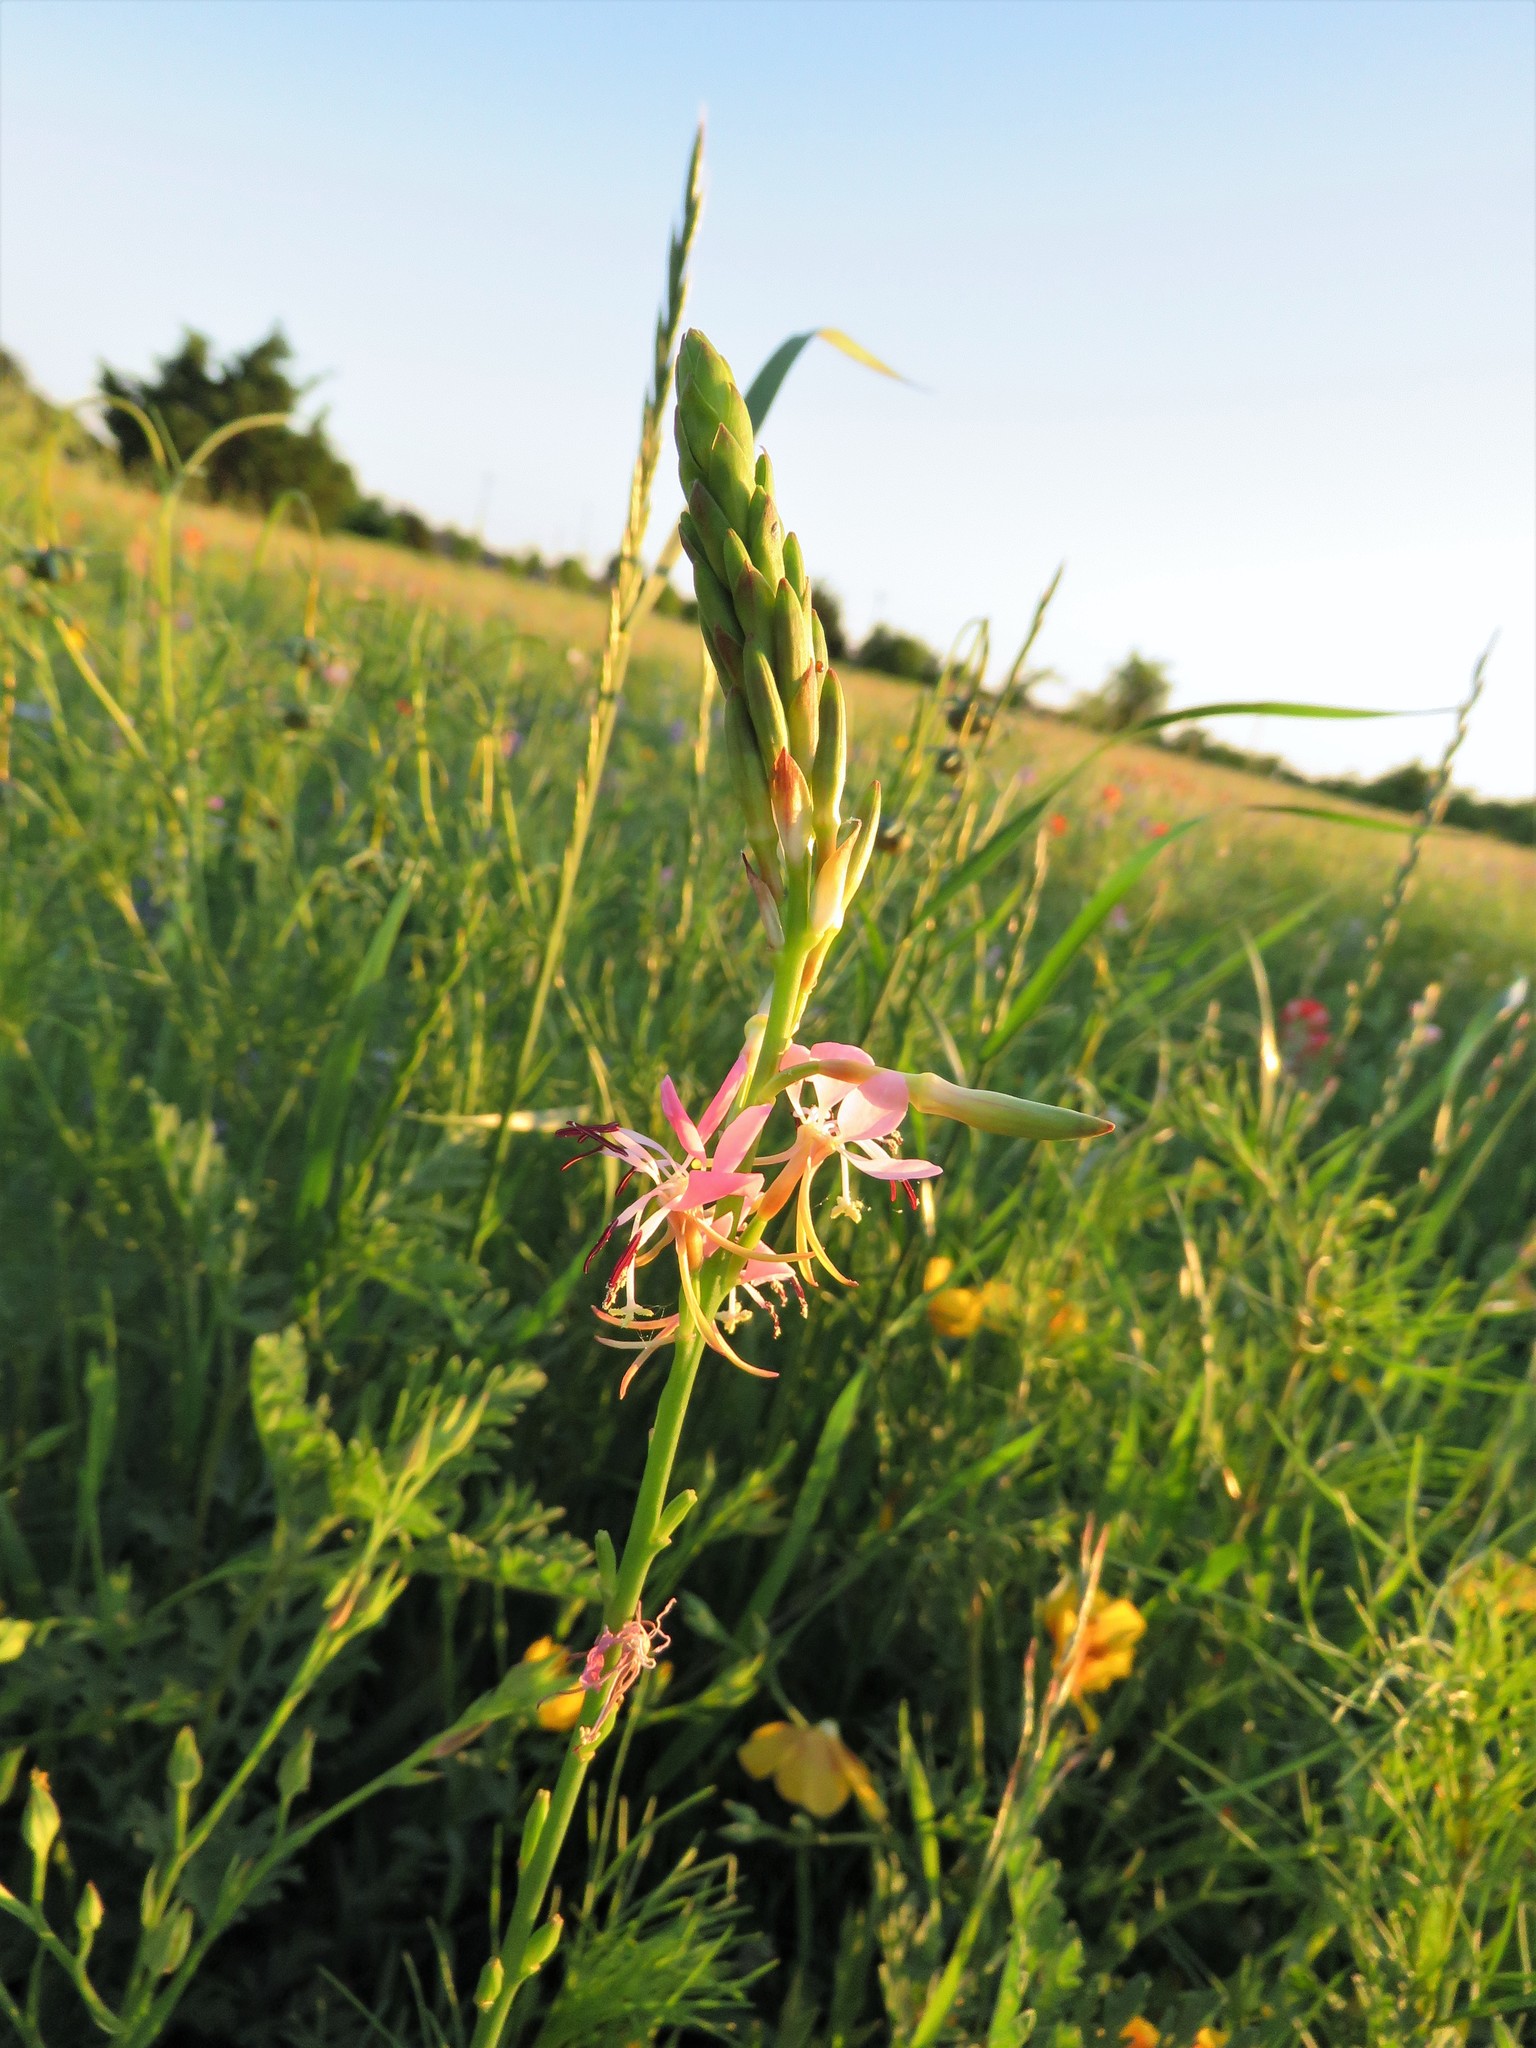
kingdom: Plantae
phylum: Tracheophyta
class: Magnoliopsida
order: Myrtales
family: Onagraceae
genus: Oenothera
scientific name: Oenothera suffulta
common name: Kisses
